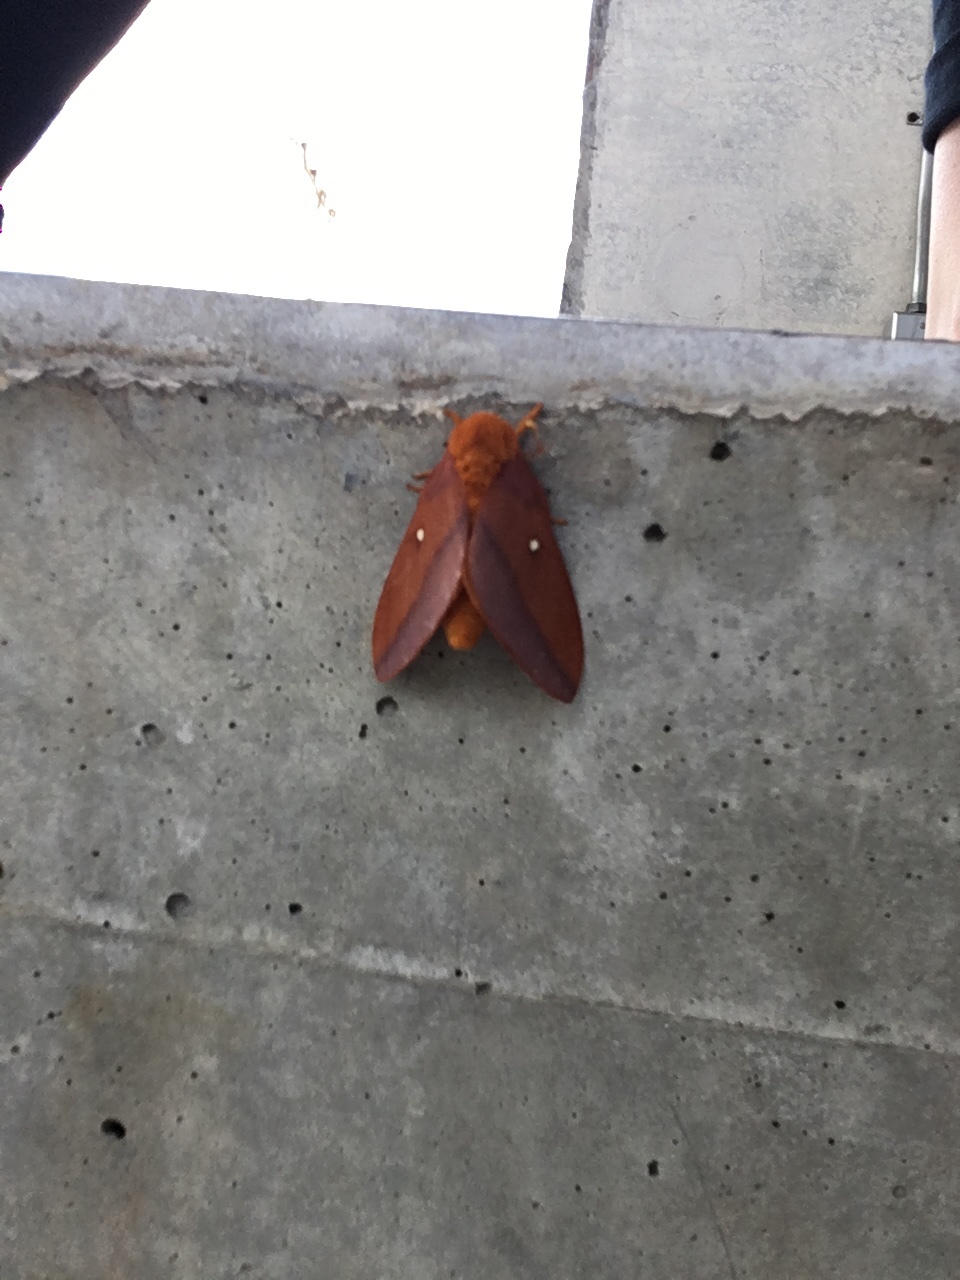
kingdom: Animalia
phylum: Arthropoda
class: Insecta
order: Lepidoptera
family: Saturniidae
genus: Anisota
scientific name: Anisota virginiensis
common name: Pink striped oakworm moth
